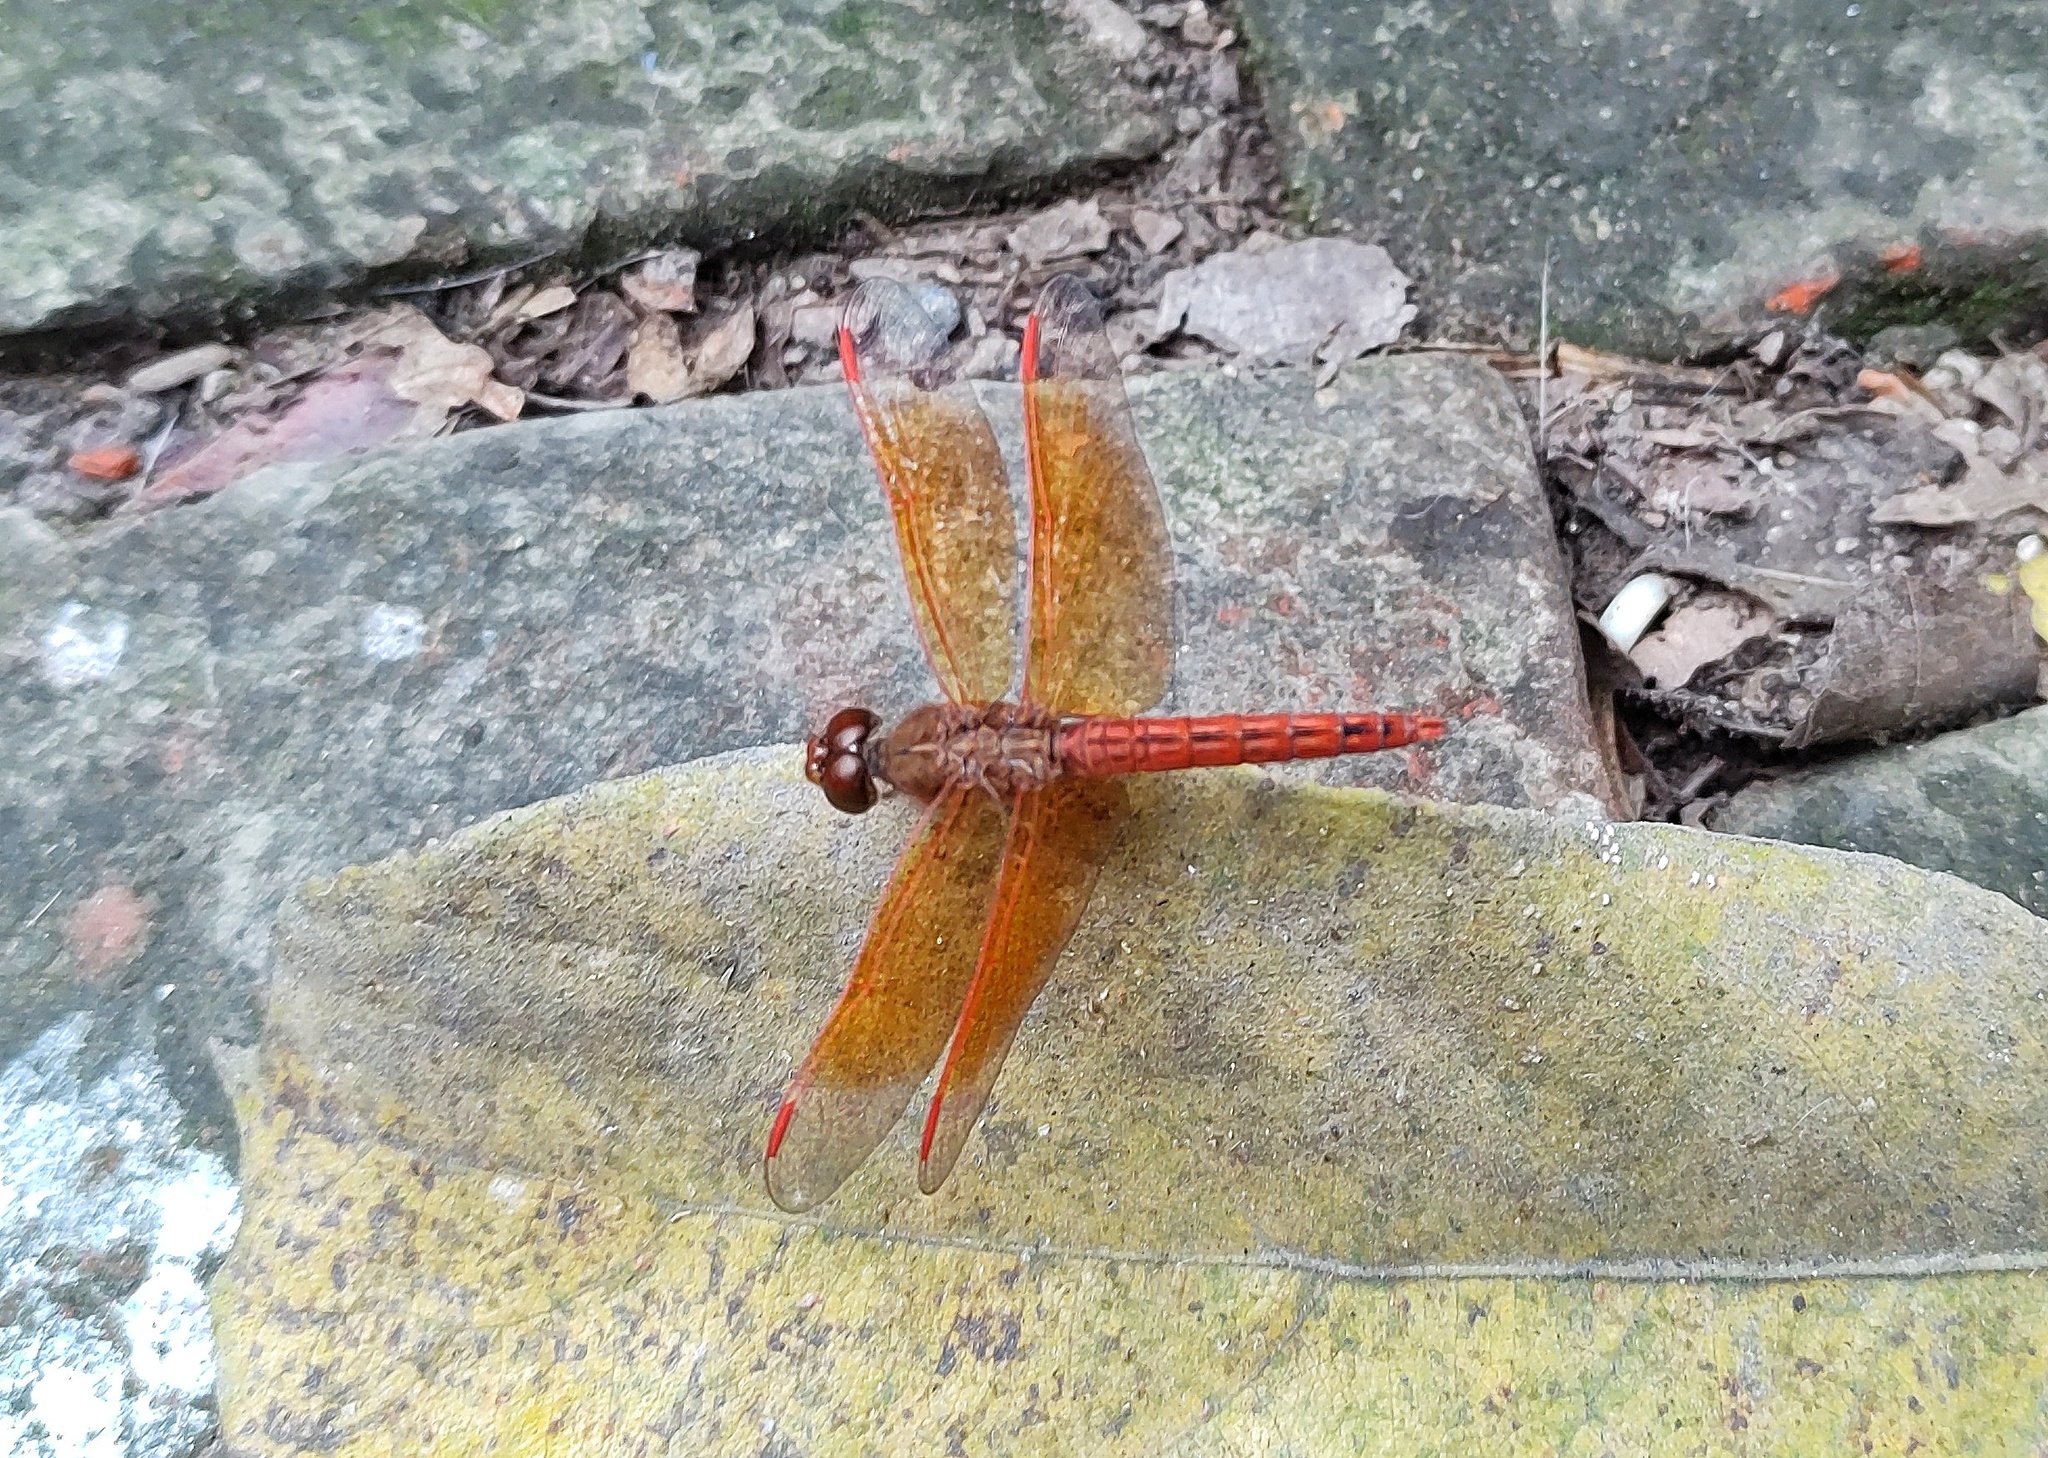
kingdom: Animalia
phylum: Arthropoda
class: Insecta
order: Odonata
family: Libellulidae
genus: Brachythemis
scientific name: Brachythemis contaminata
